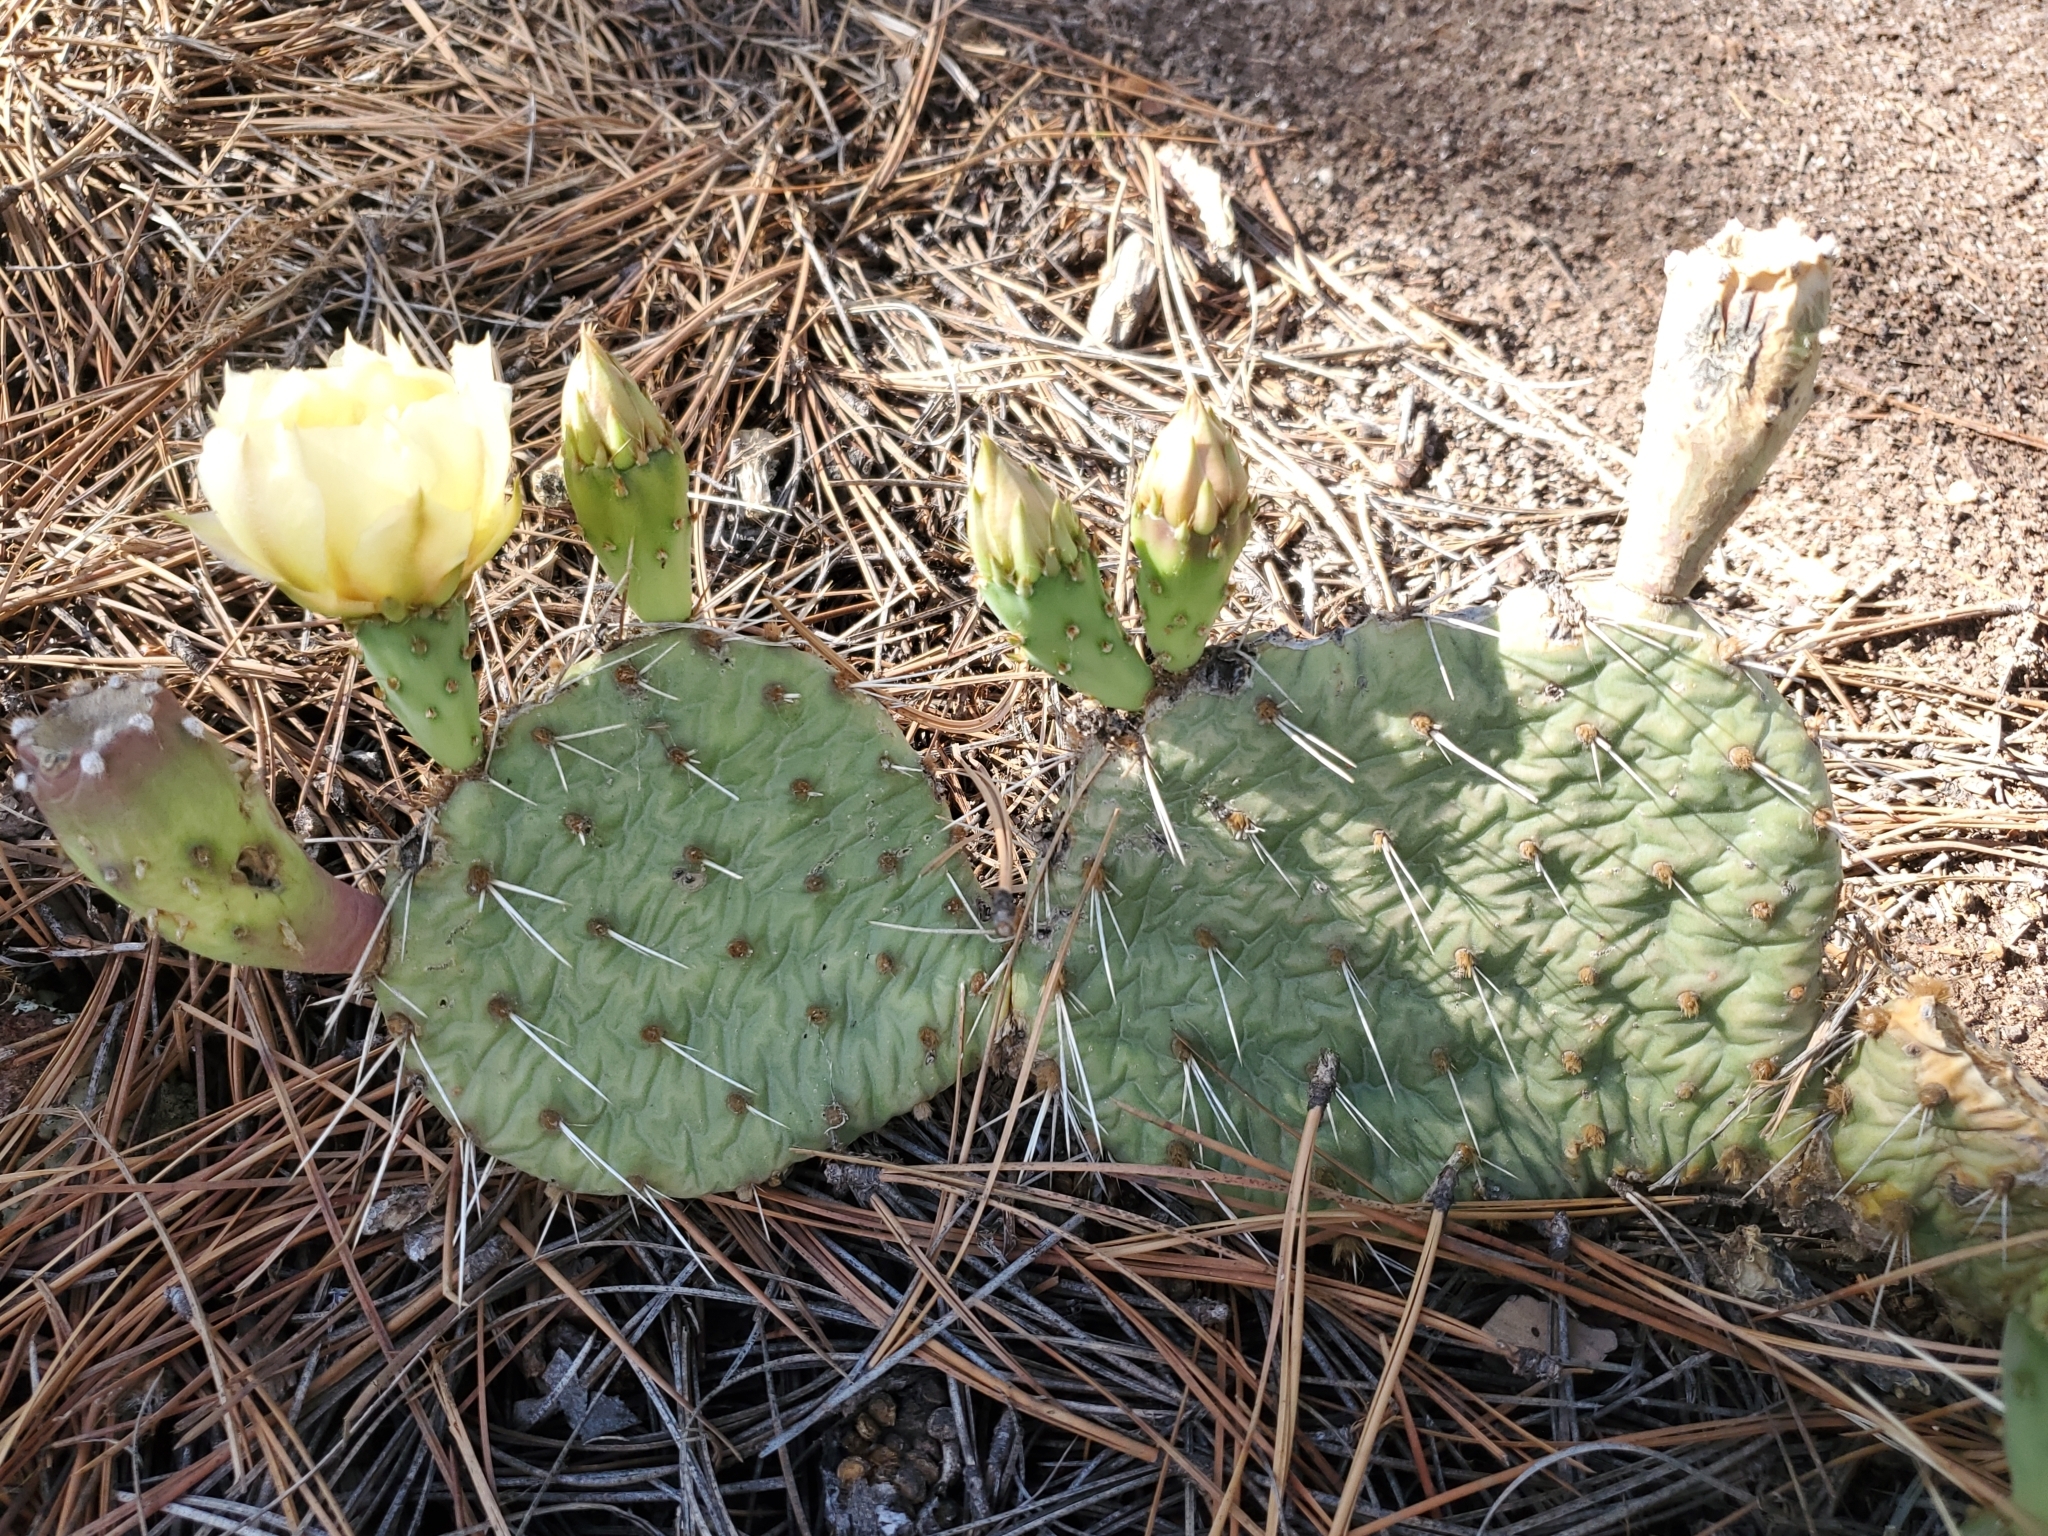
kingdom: Plantae
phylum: Tracheophyta
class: Magnoliopsida
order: Caryophyllales
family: Cactaceae
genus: Opuntia
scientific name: Opuntia polyacantha
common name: Plains prickly-pear
